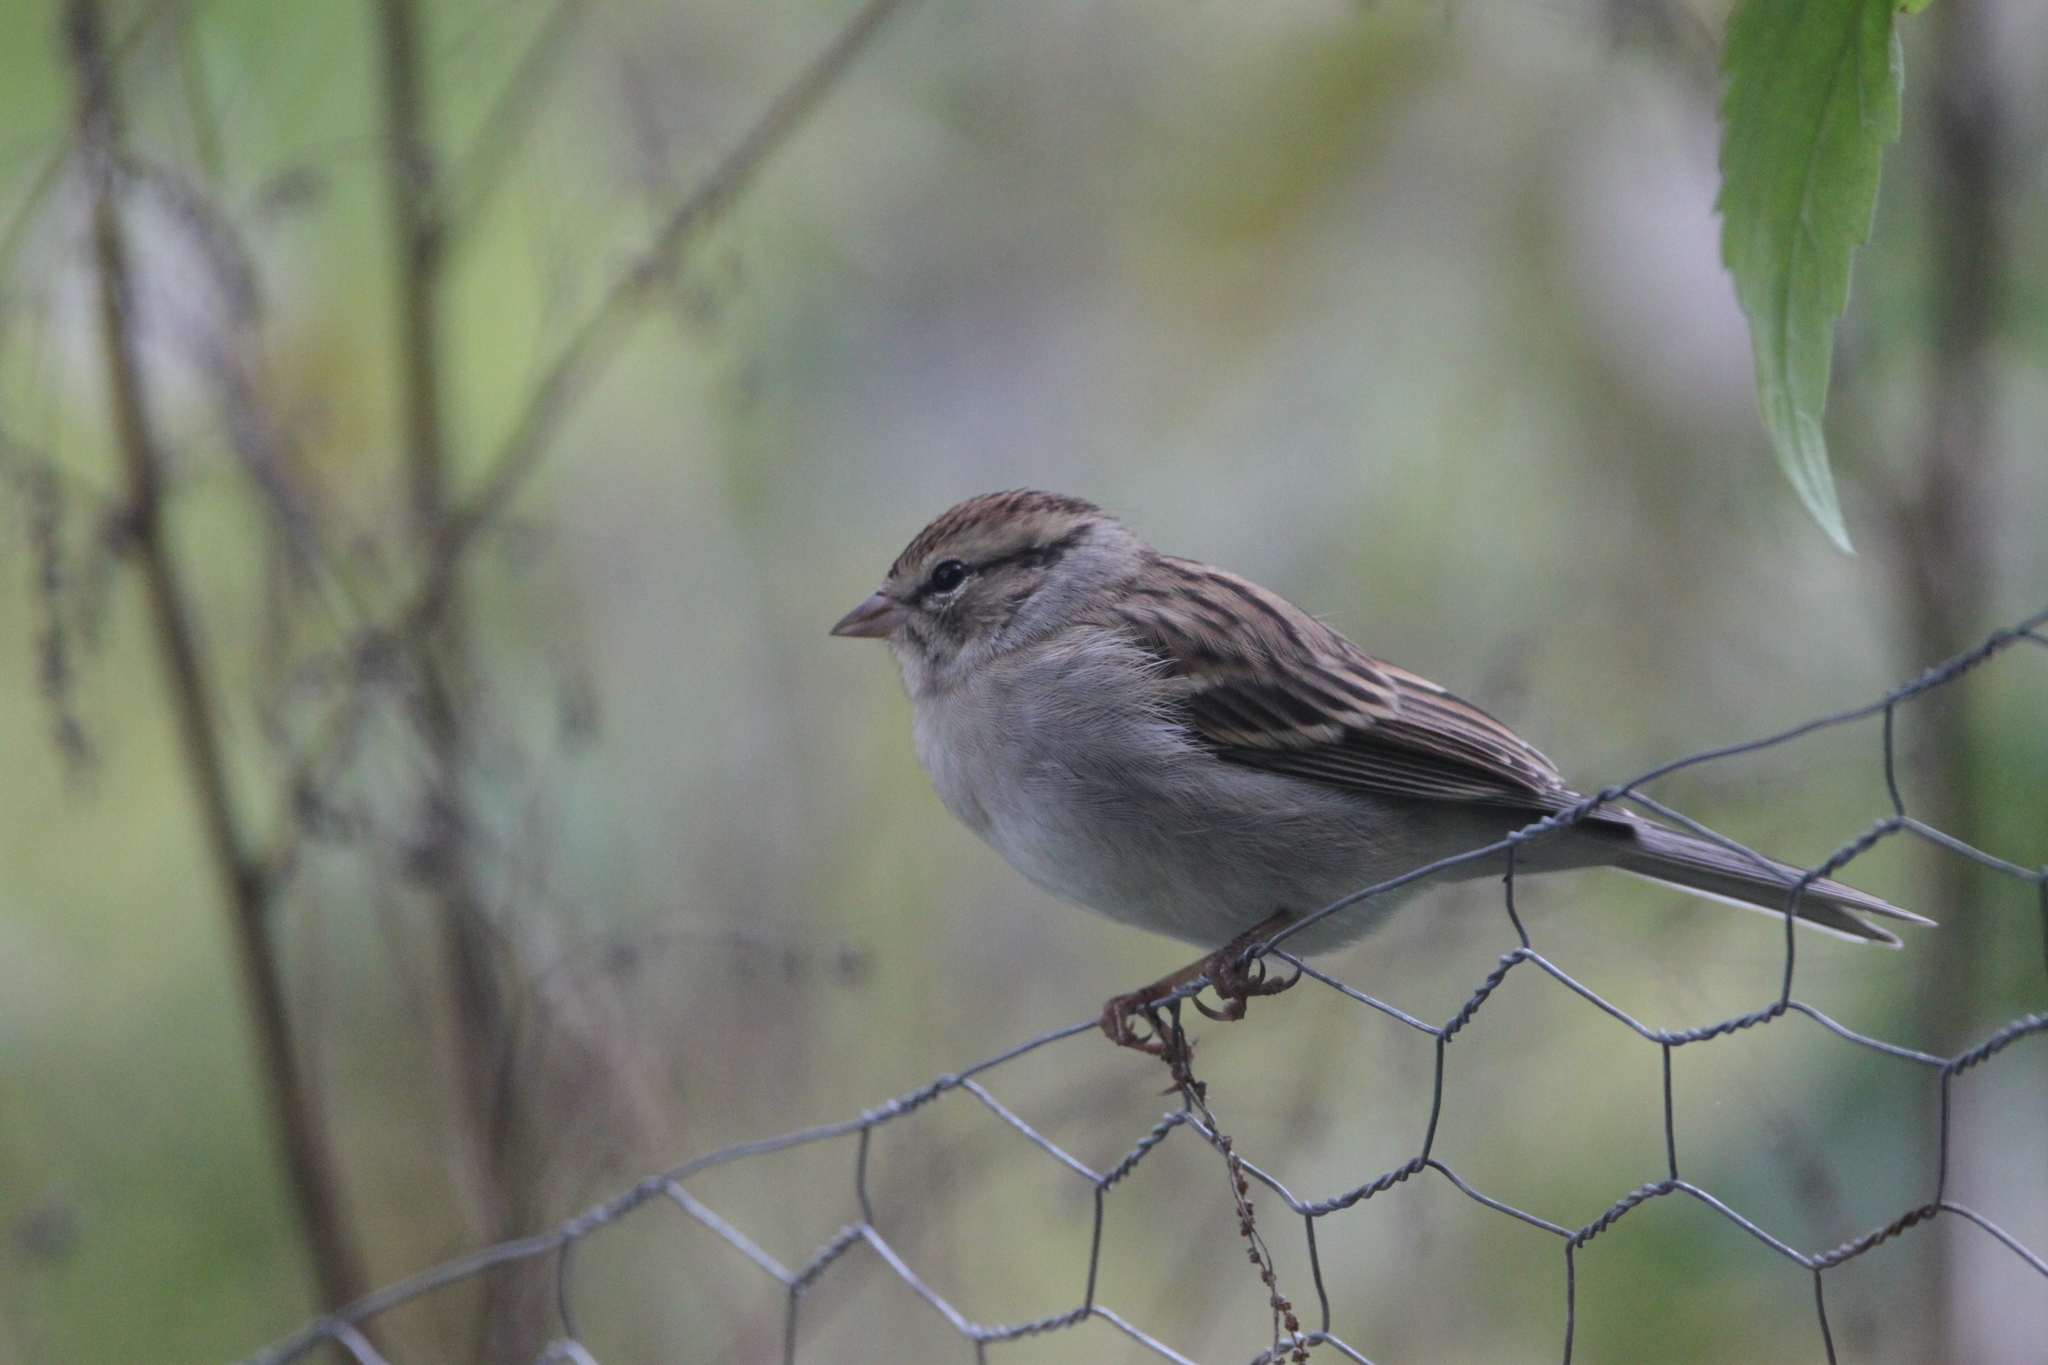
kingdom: Animalia
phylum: Chordata
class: Aves
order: Passeriformes
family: Passerellidae
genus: Spizella
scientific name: Spizella passerina
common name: Chipping sparrow
